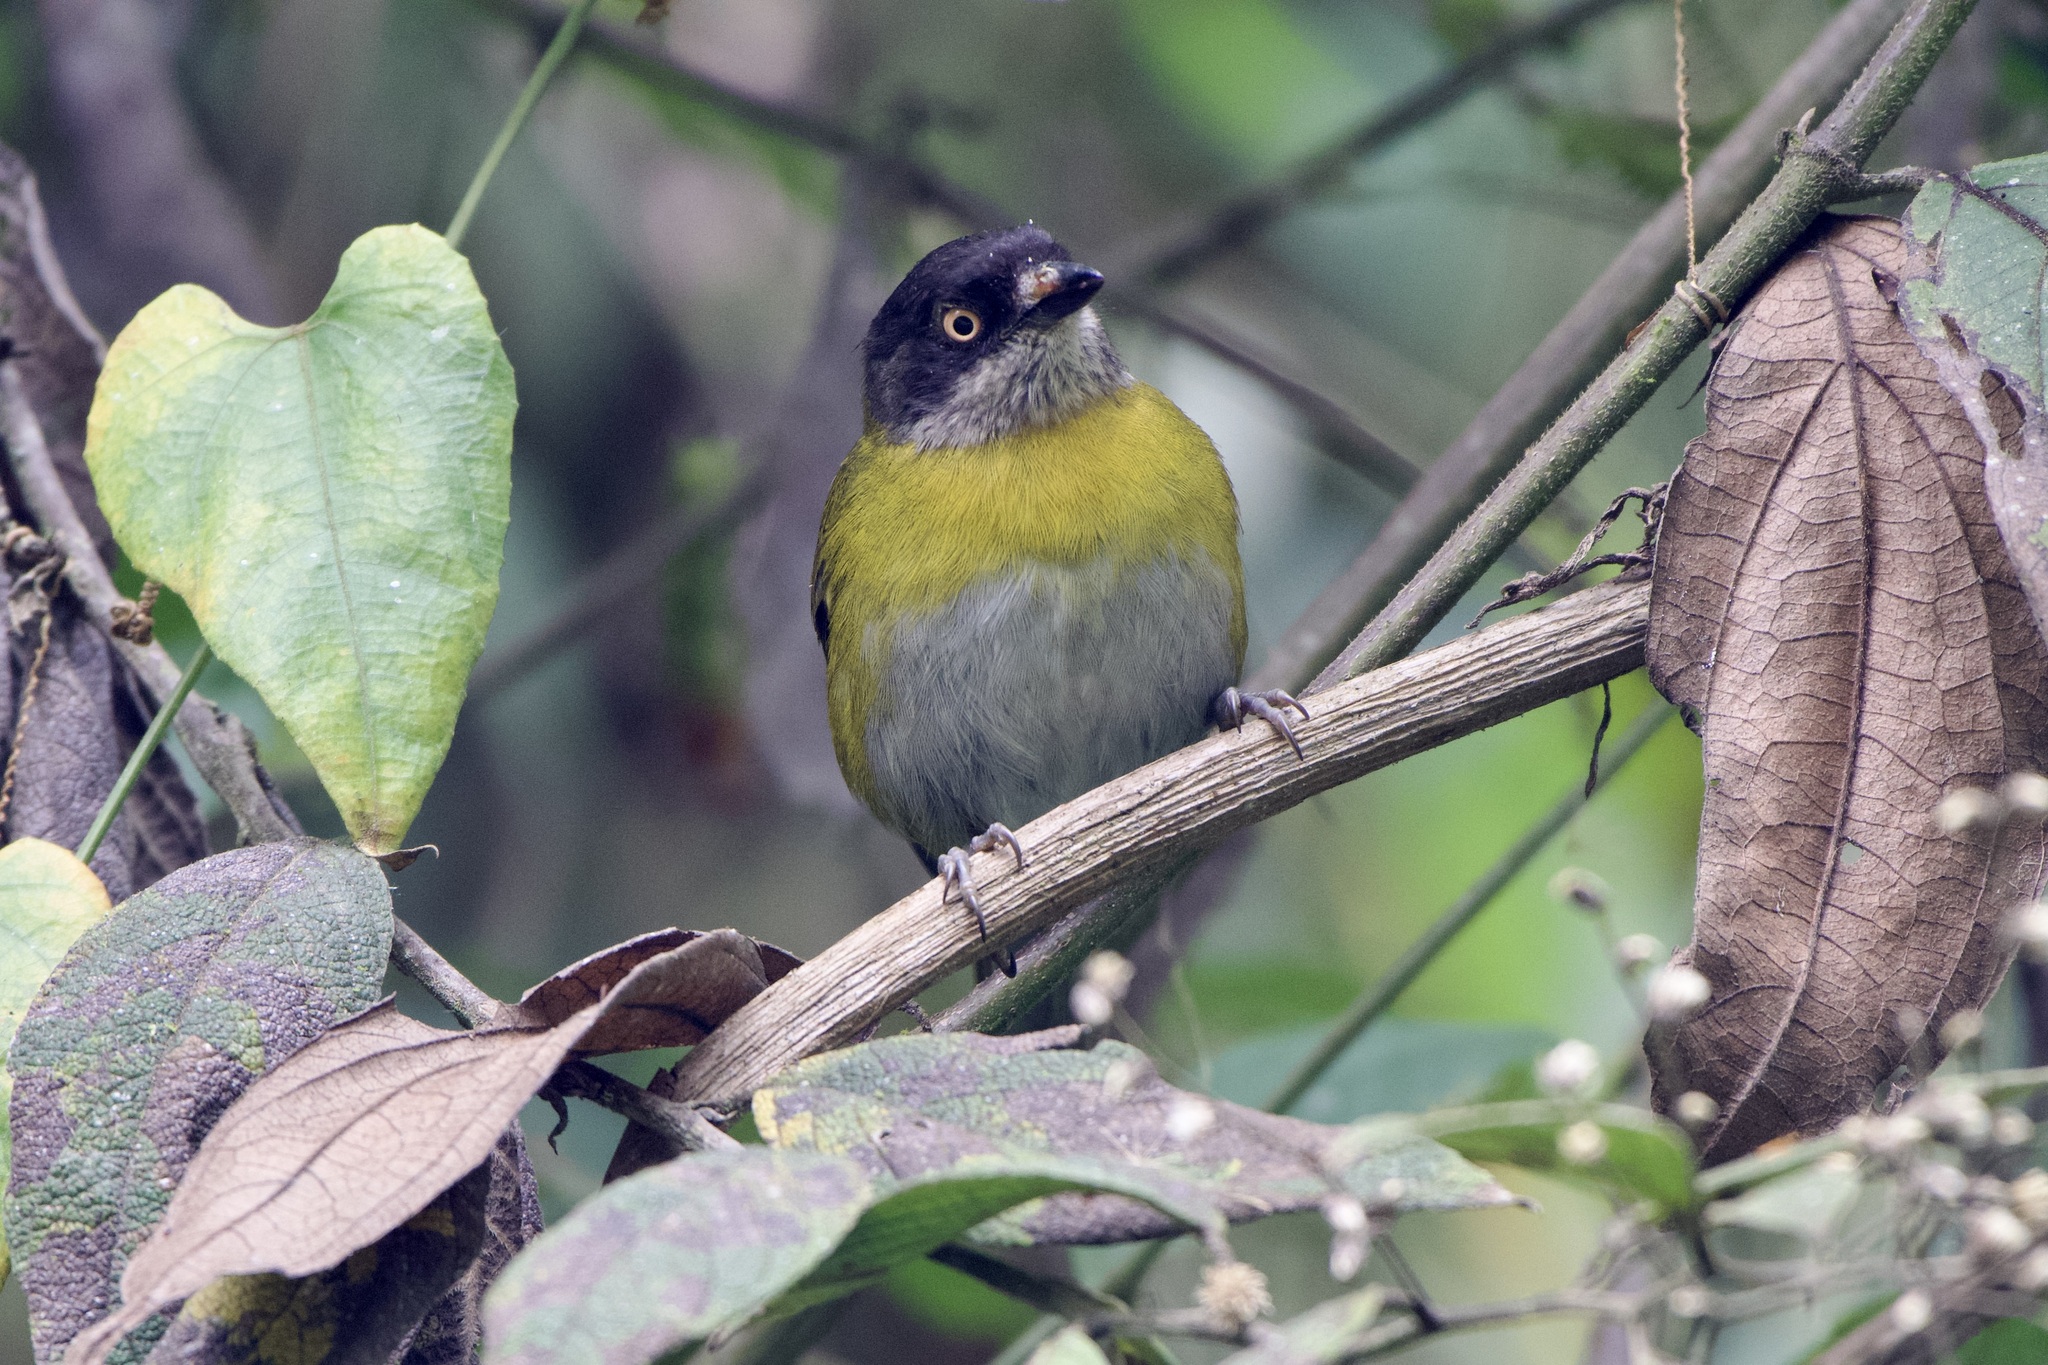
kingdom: Animalia
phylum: Chordata
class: Aves
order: Passeriformes
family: Passerellidae
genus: Chlorospingus
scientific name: Chlorospingus flavopectus
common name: Common chlorospingus
